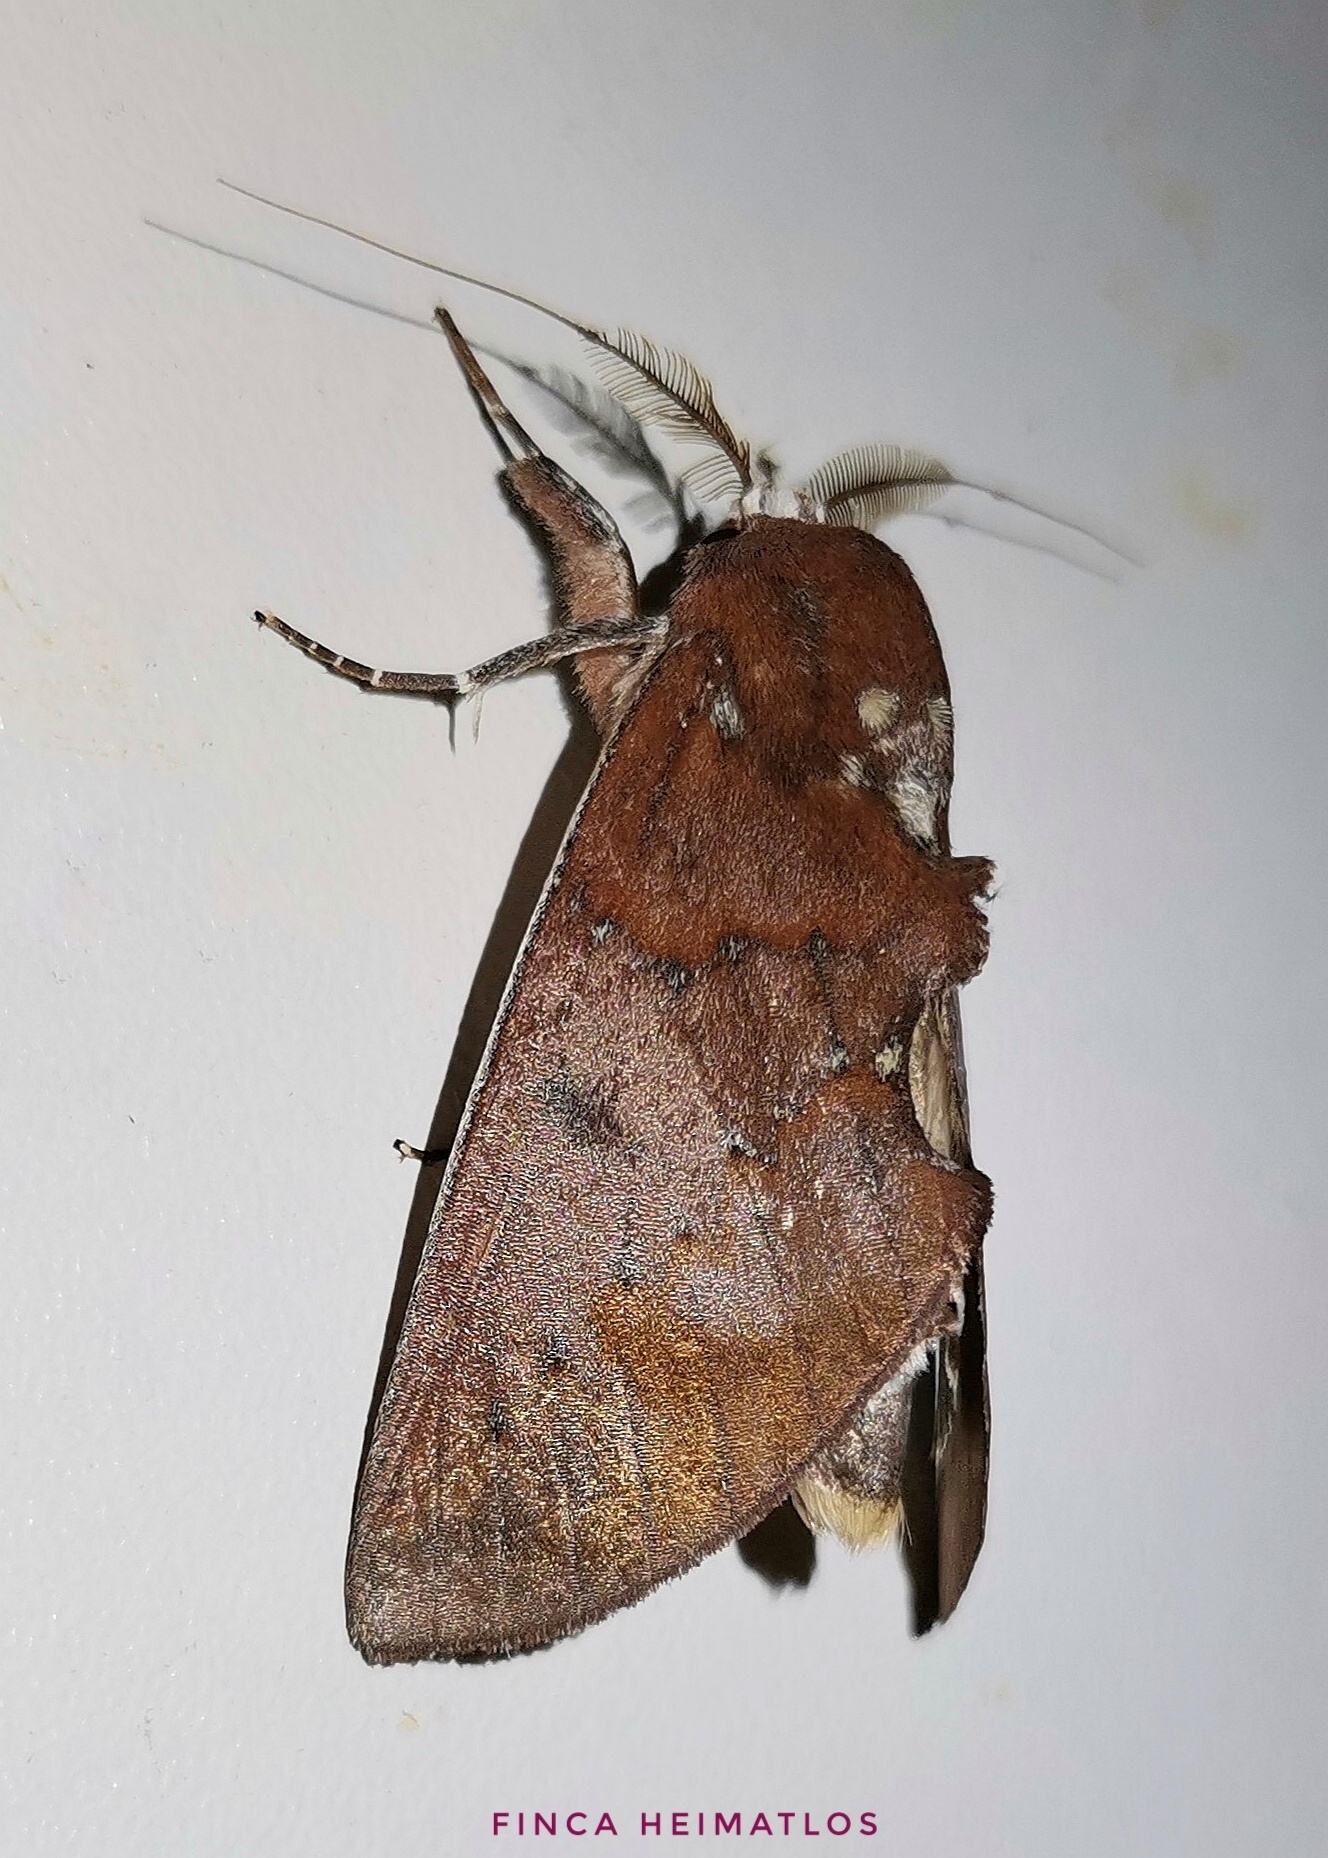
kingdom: Animalia
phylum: Arthropoda
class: Insecta
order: Lepidoptera
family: Notodontidae
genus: Hemiceras
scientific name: Hemiceras conspirata
